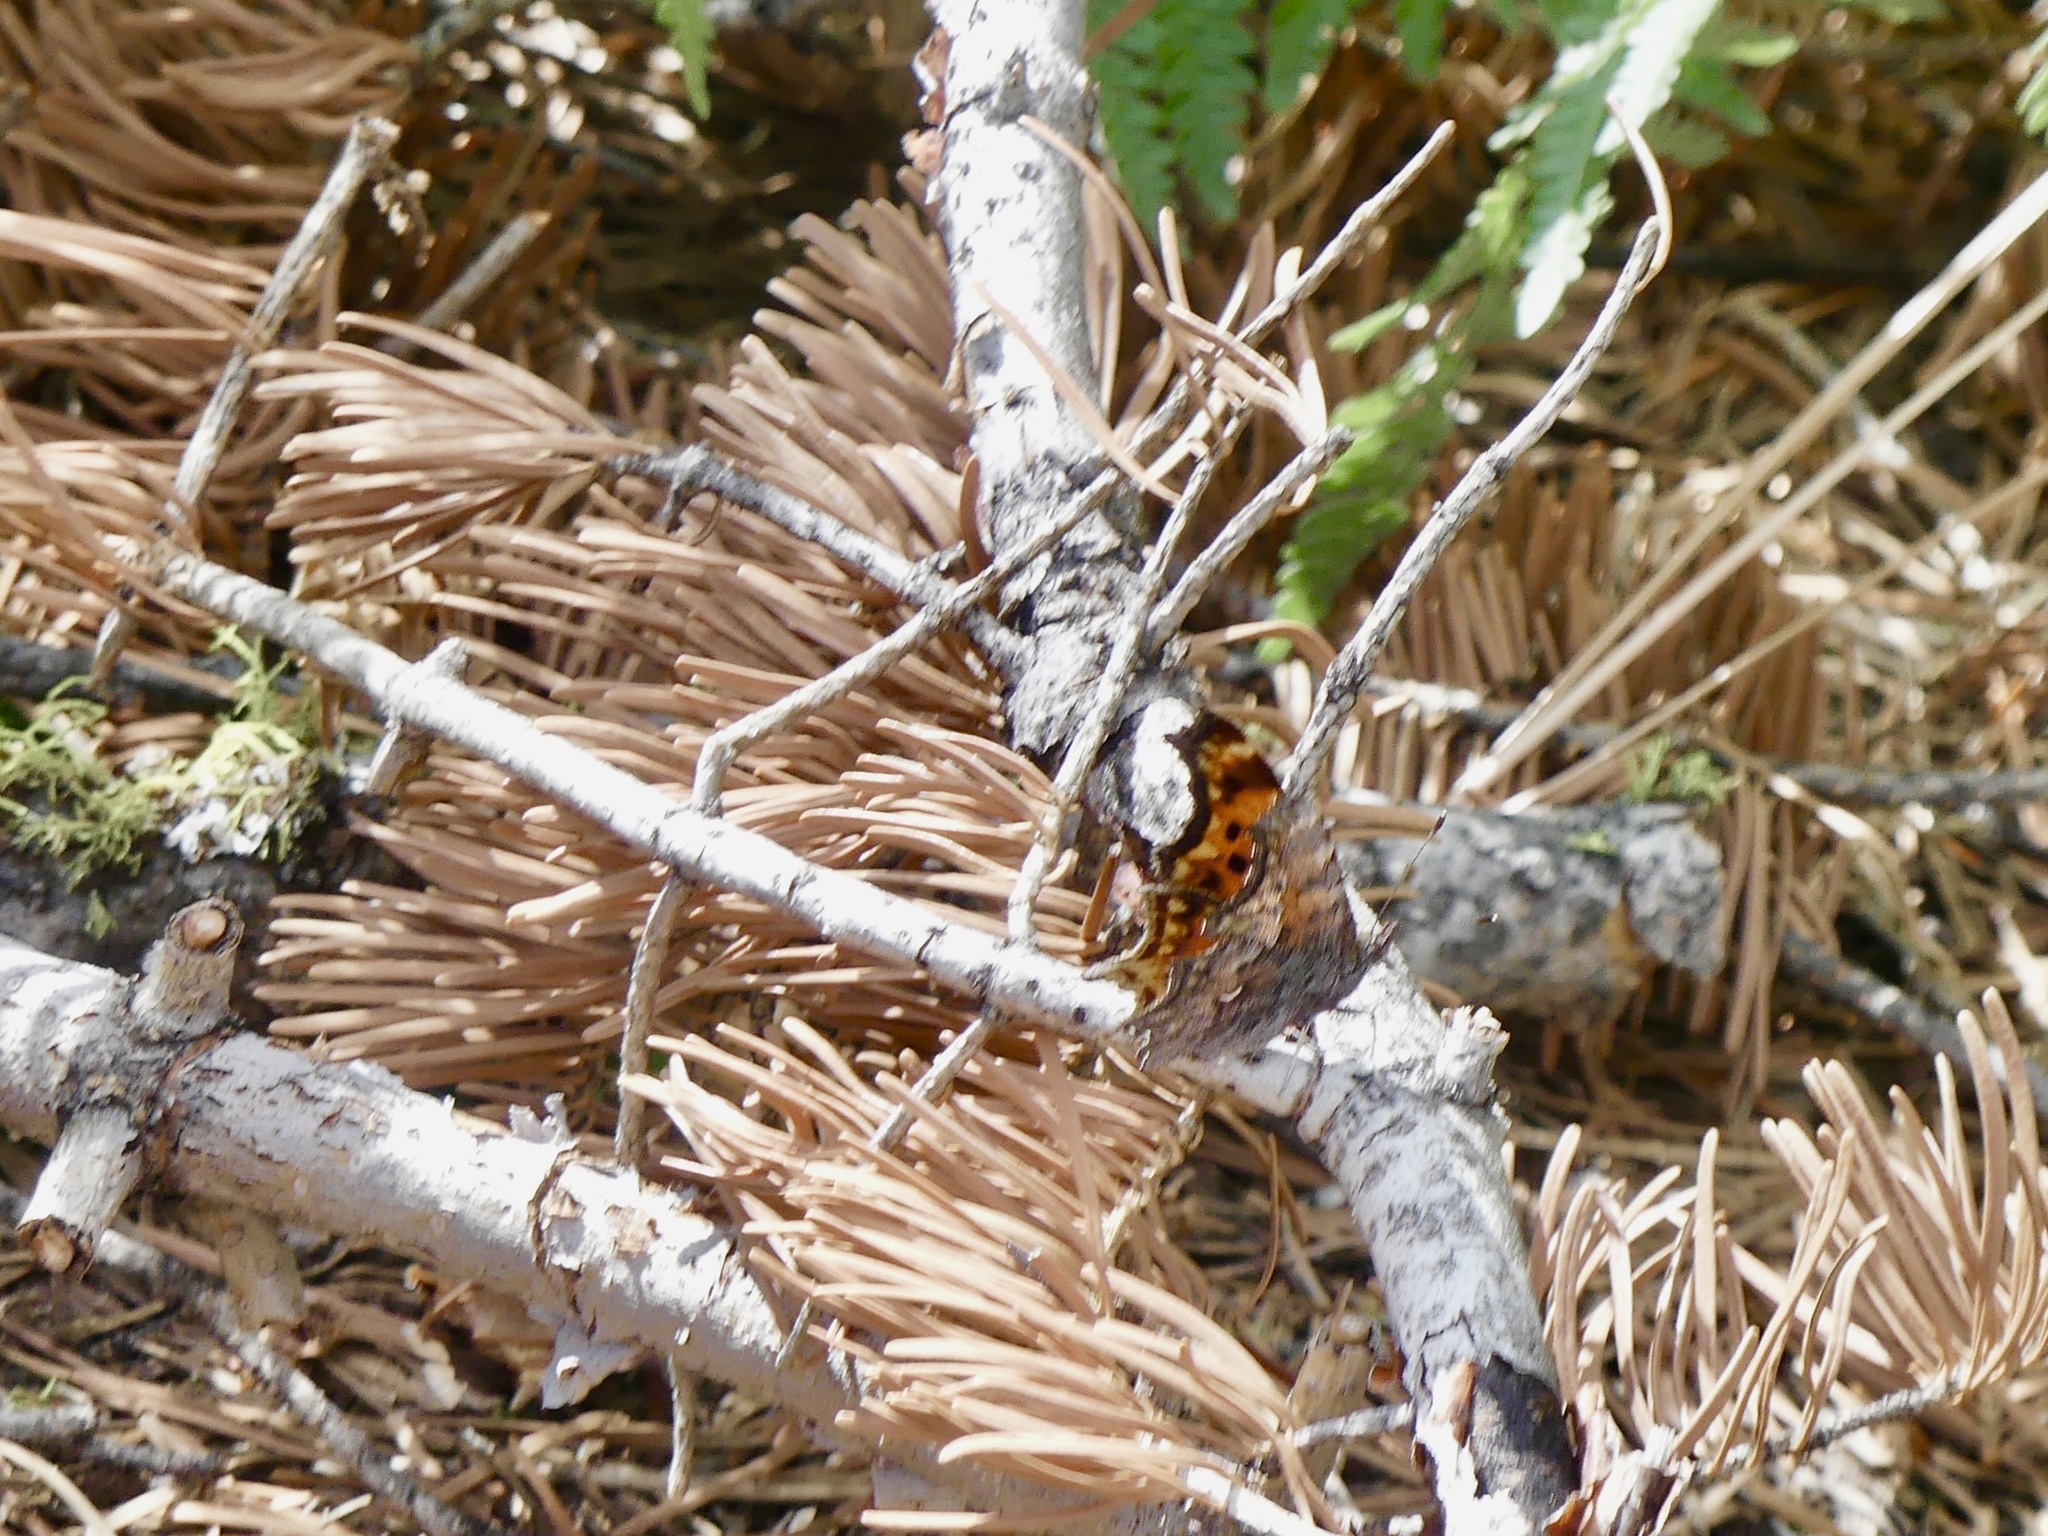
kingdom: Animalia
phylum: Arthropoda
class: Insecta
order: Lepidoptera
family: Nymphalidae
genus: Polygonia
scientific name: Polygonia gracilis
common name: Hoary comma
